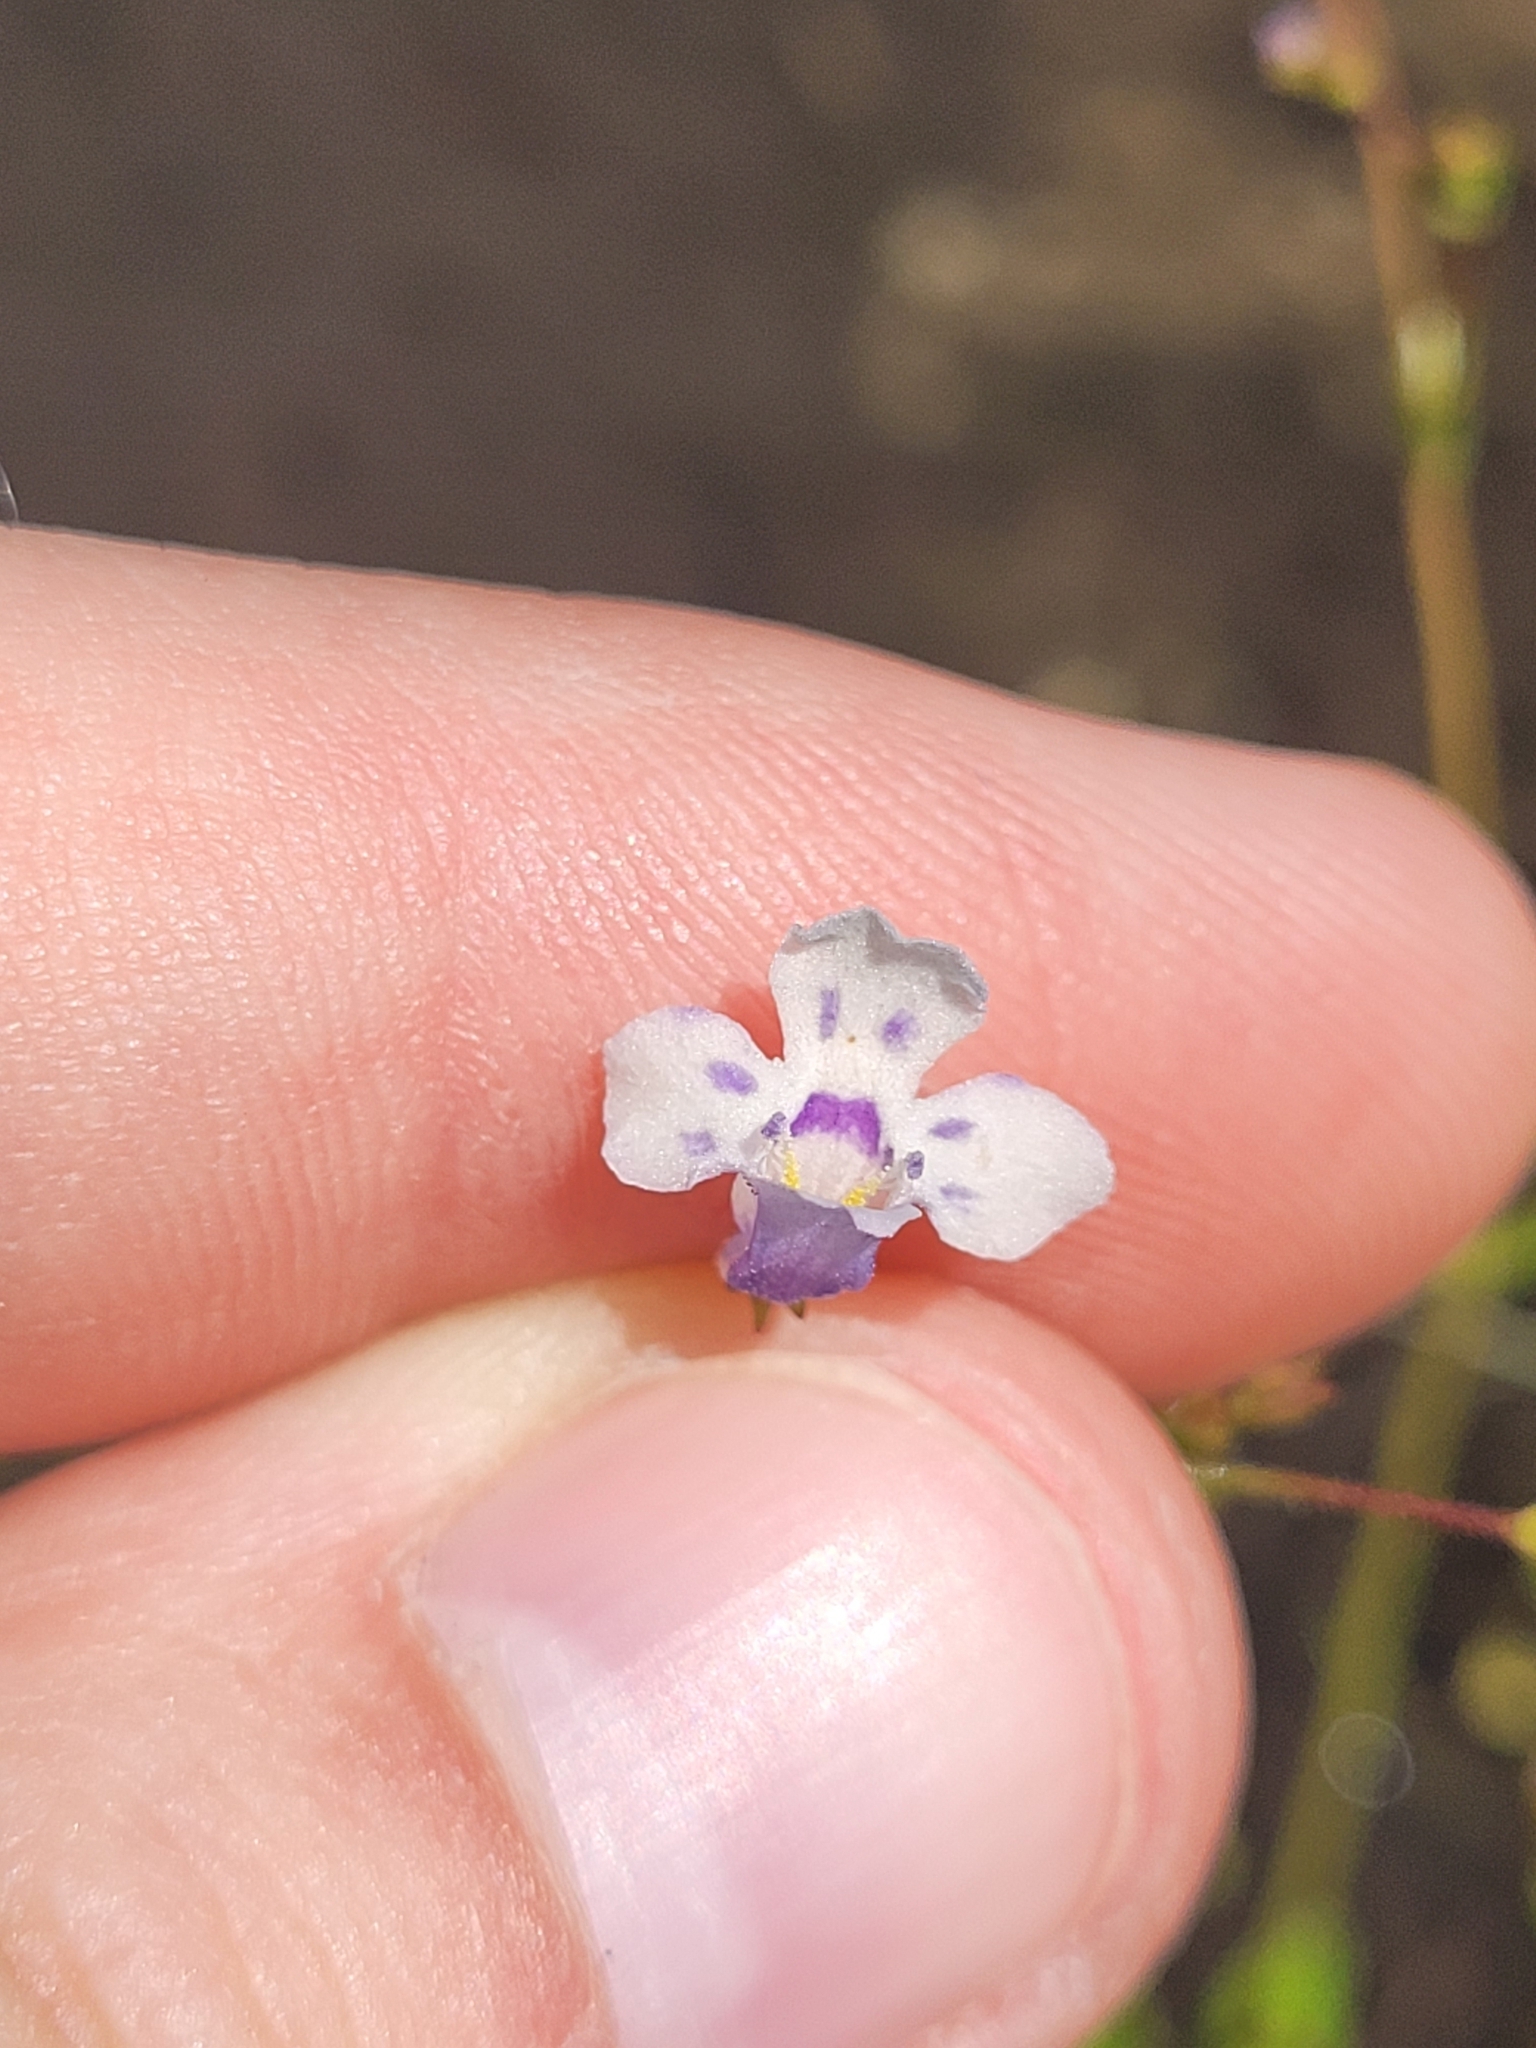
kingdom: Plantae
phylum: Tracheophyta
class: Magnoliopsida
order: Lamiales
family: Linderniaceae
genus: Lindernia
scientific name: Lindernia monticola
